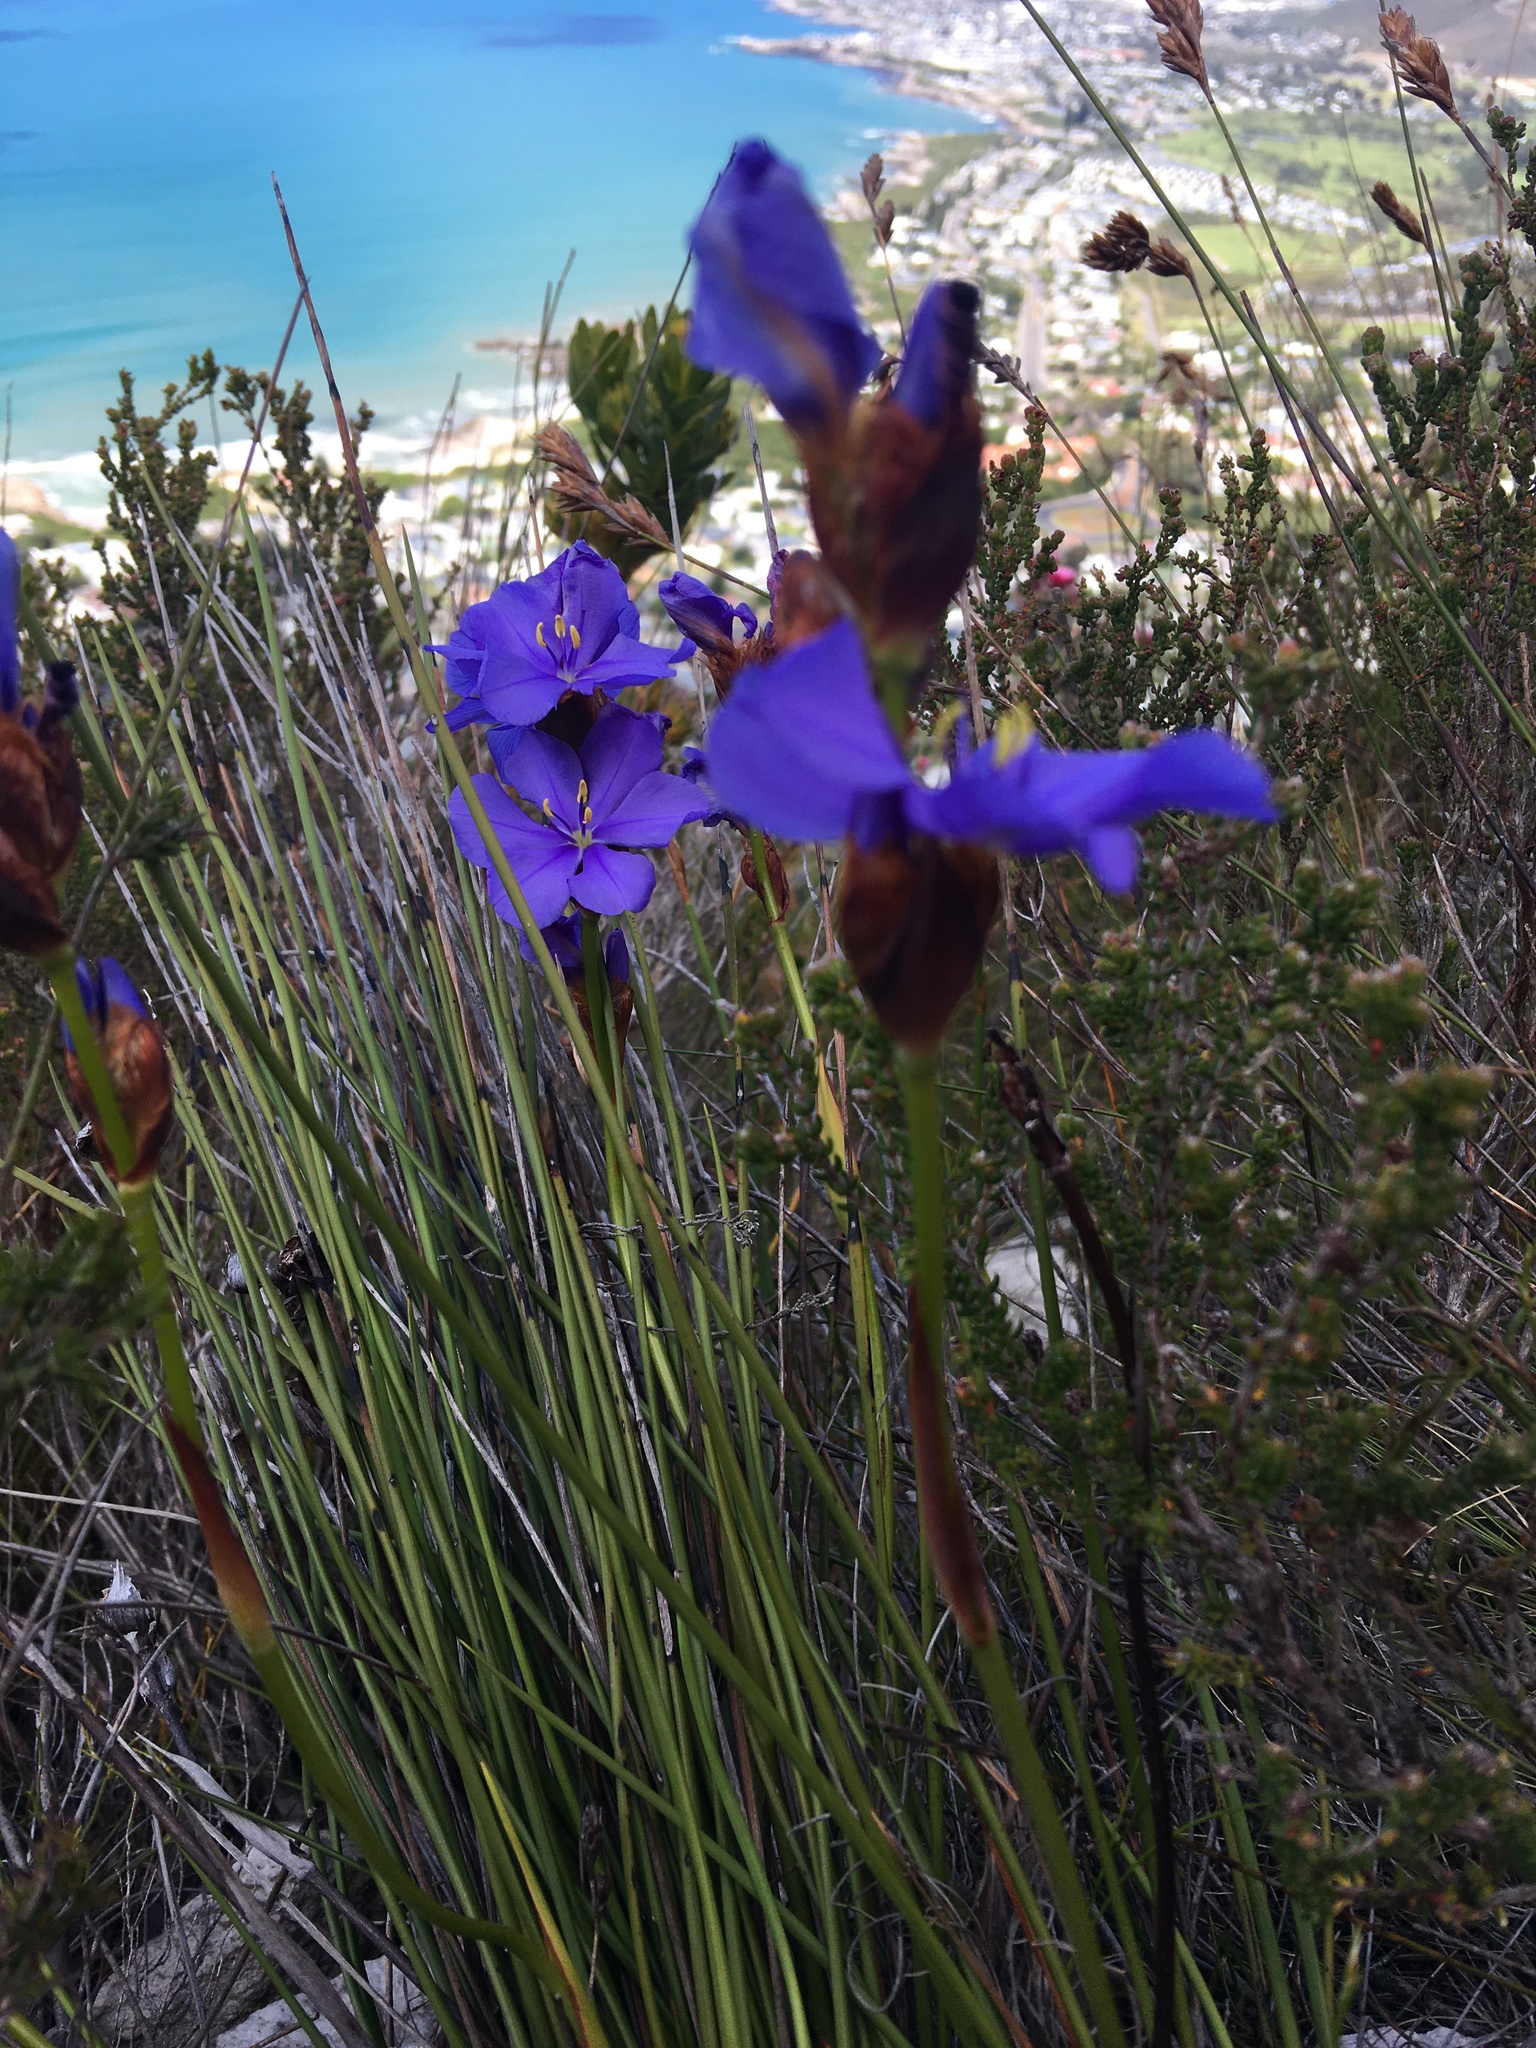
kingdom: Plantae
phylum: Tracheophyta
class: Liliopsida
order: Asparagales
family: Iridaceae
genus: Aristea
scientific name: Aristea racemosa
